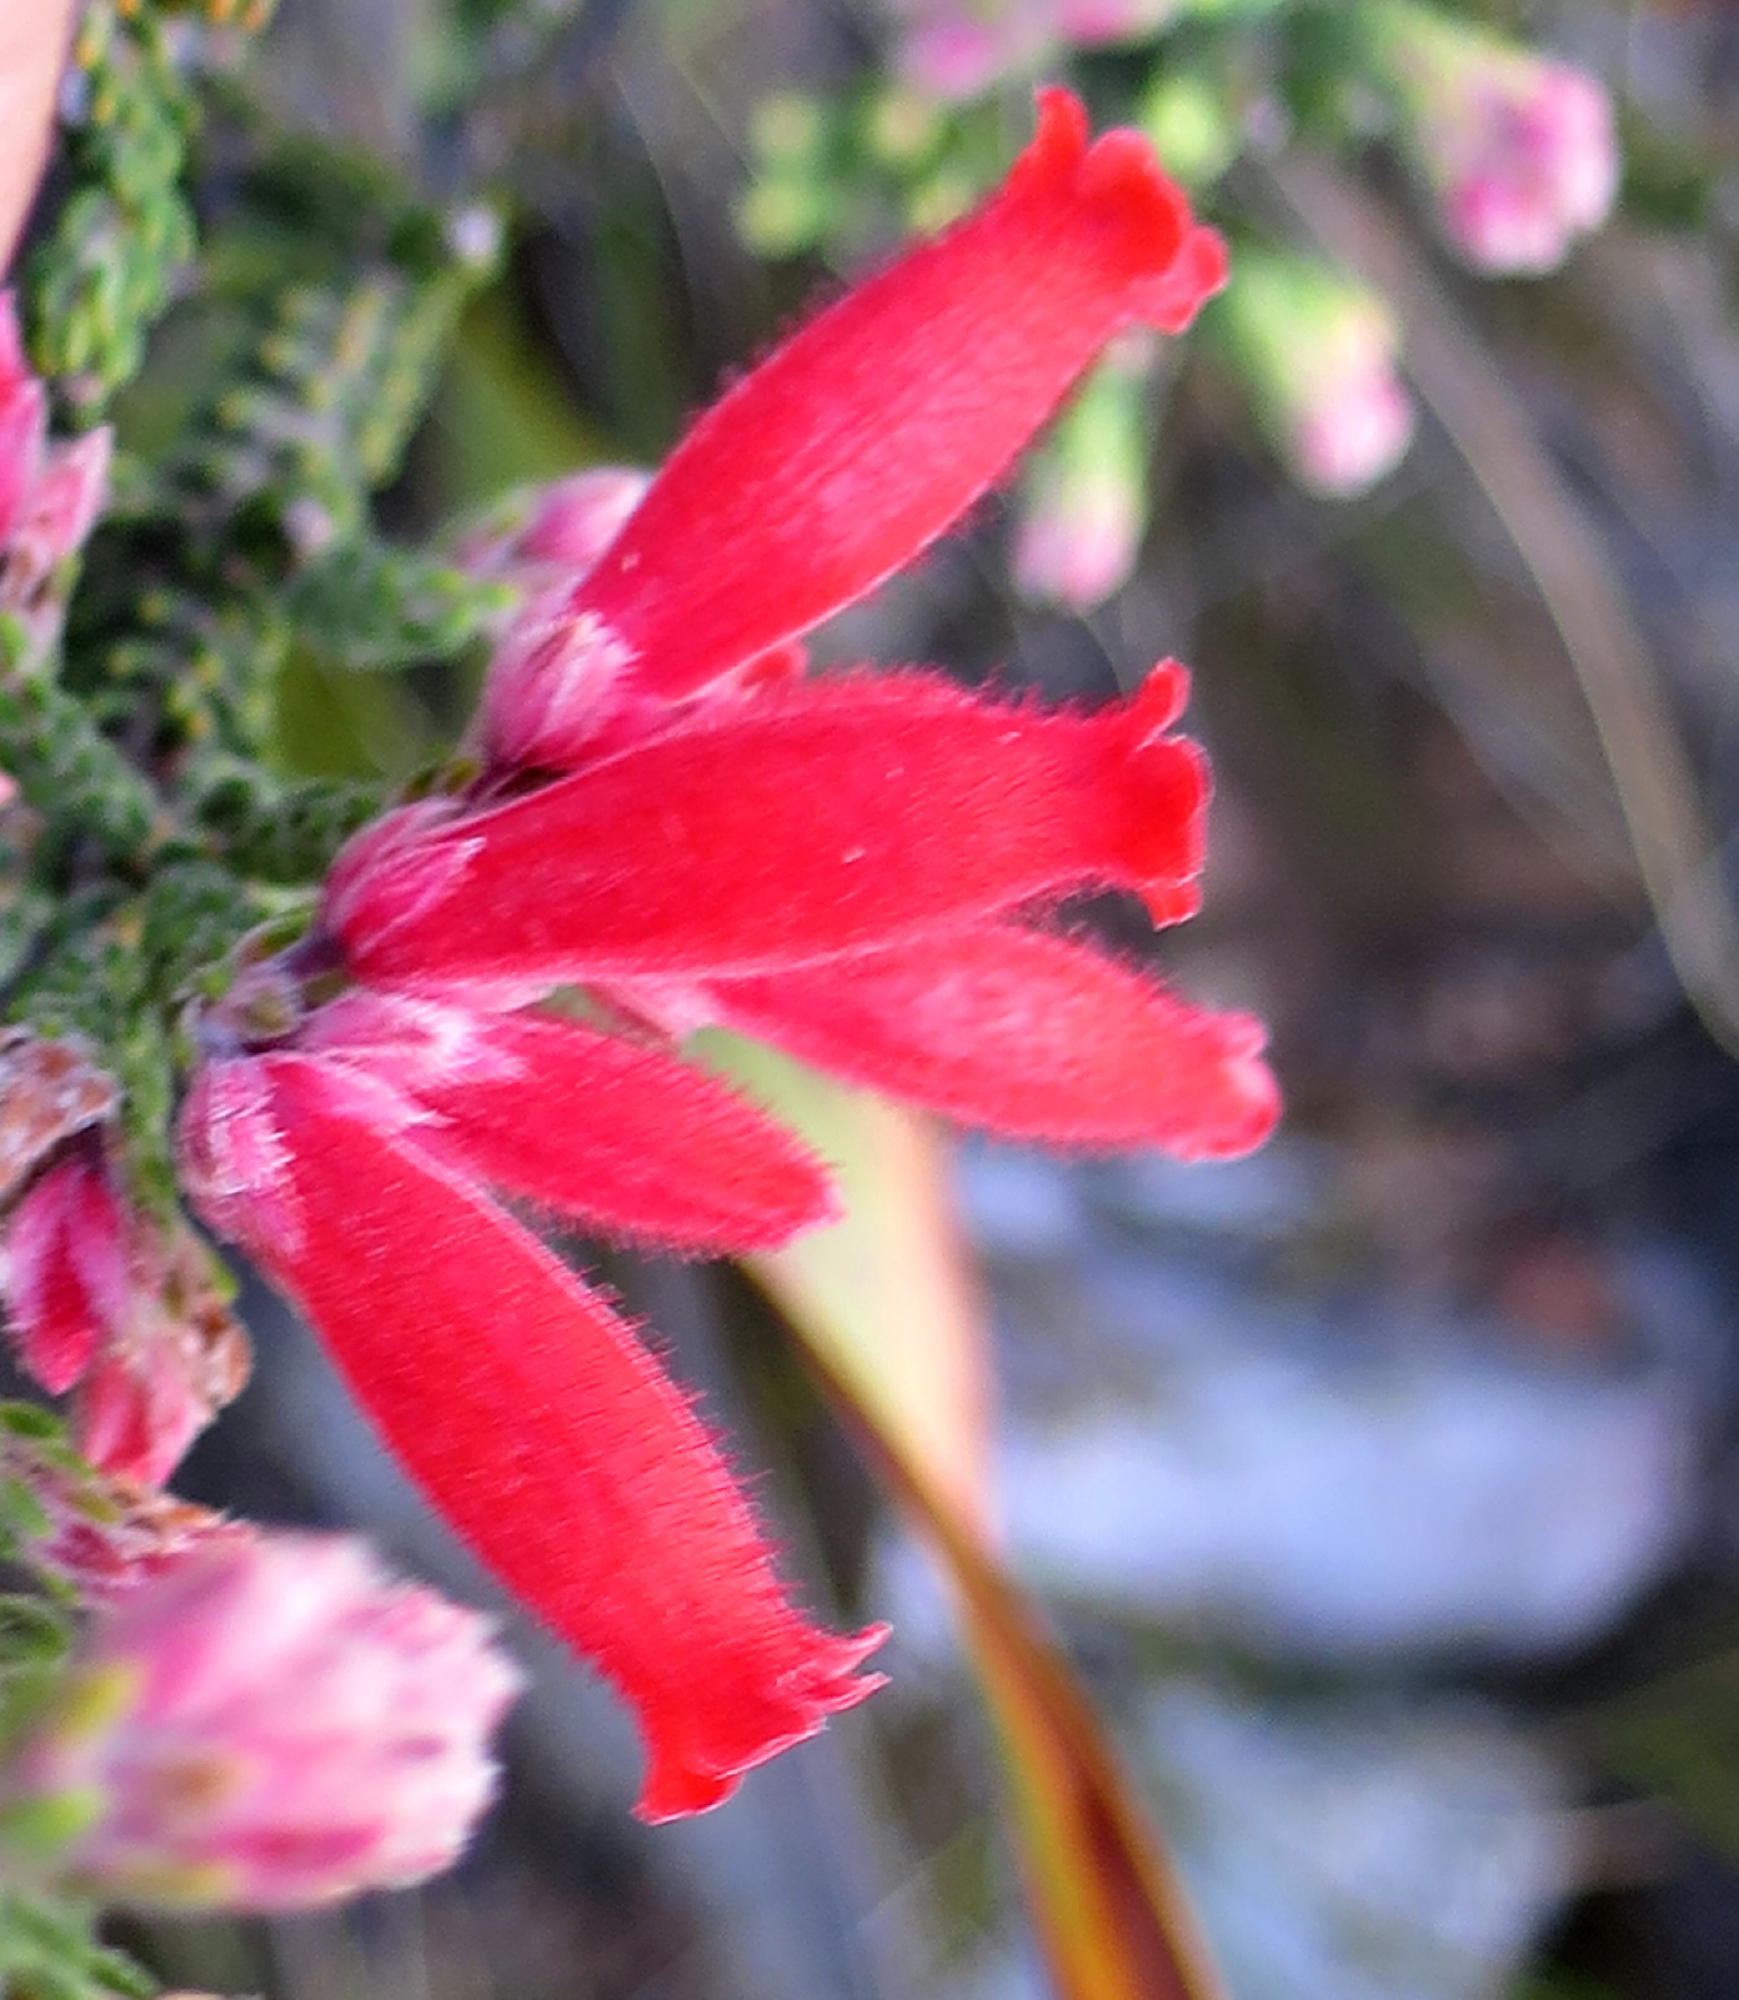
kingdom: Plantae
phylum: Tracheophyta
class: Magnoliopsida
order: Ericales
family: Ericaceae
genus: Erica
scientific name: Erica strigilifolia
